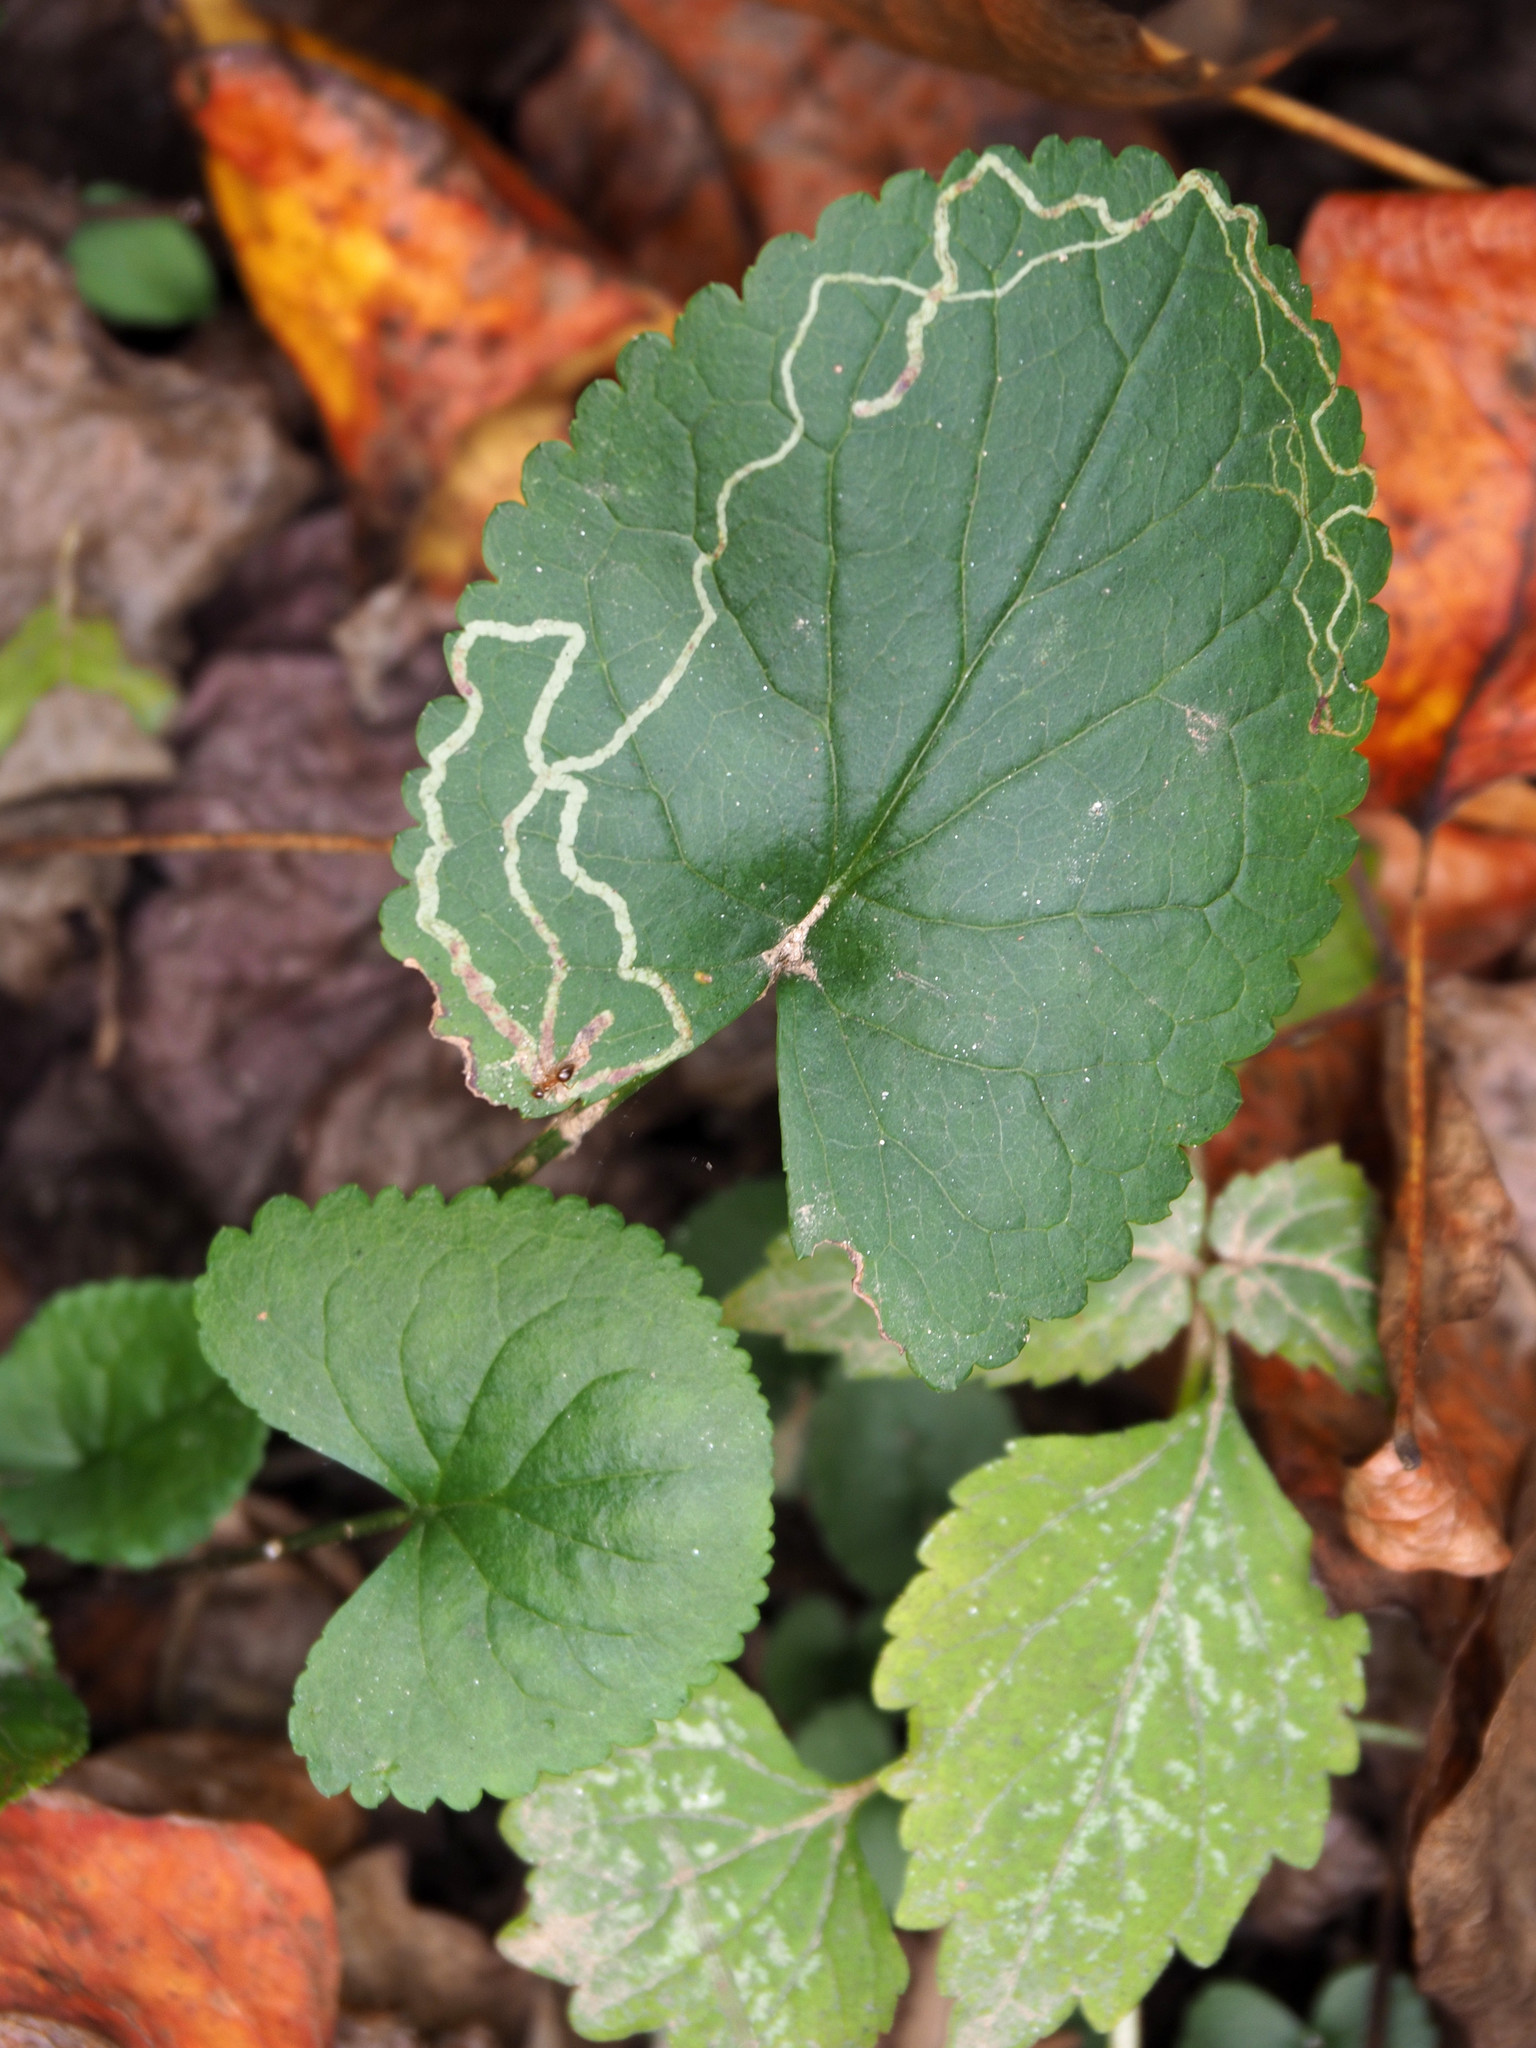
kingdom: Animalia
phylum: Arthropoda
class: Insecta
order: Lepidoptera
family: Gracillariidae
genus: Phyllocnistis
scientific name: Phyllocnistis insignis
